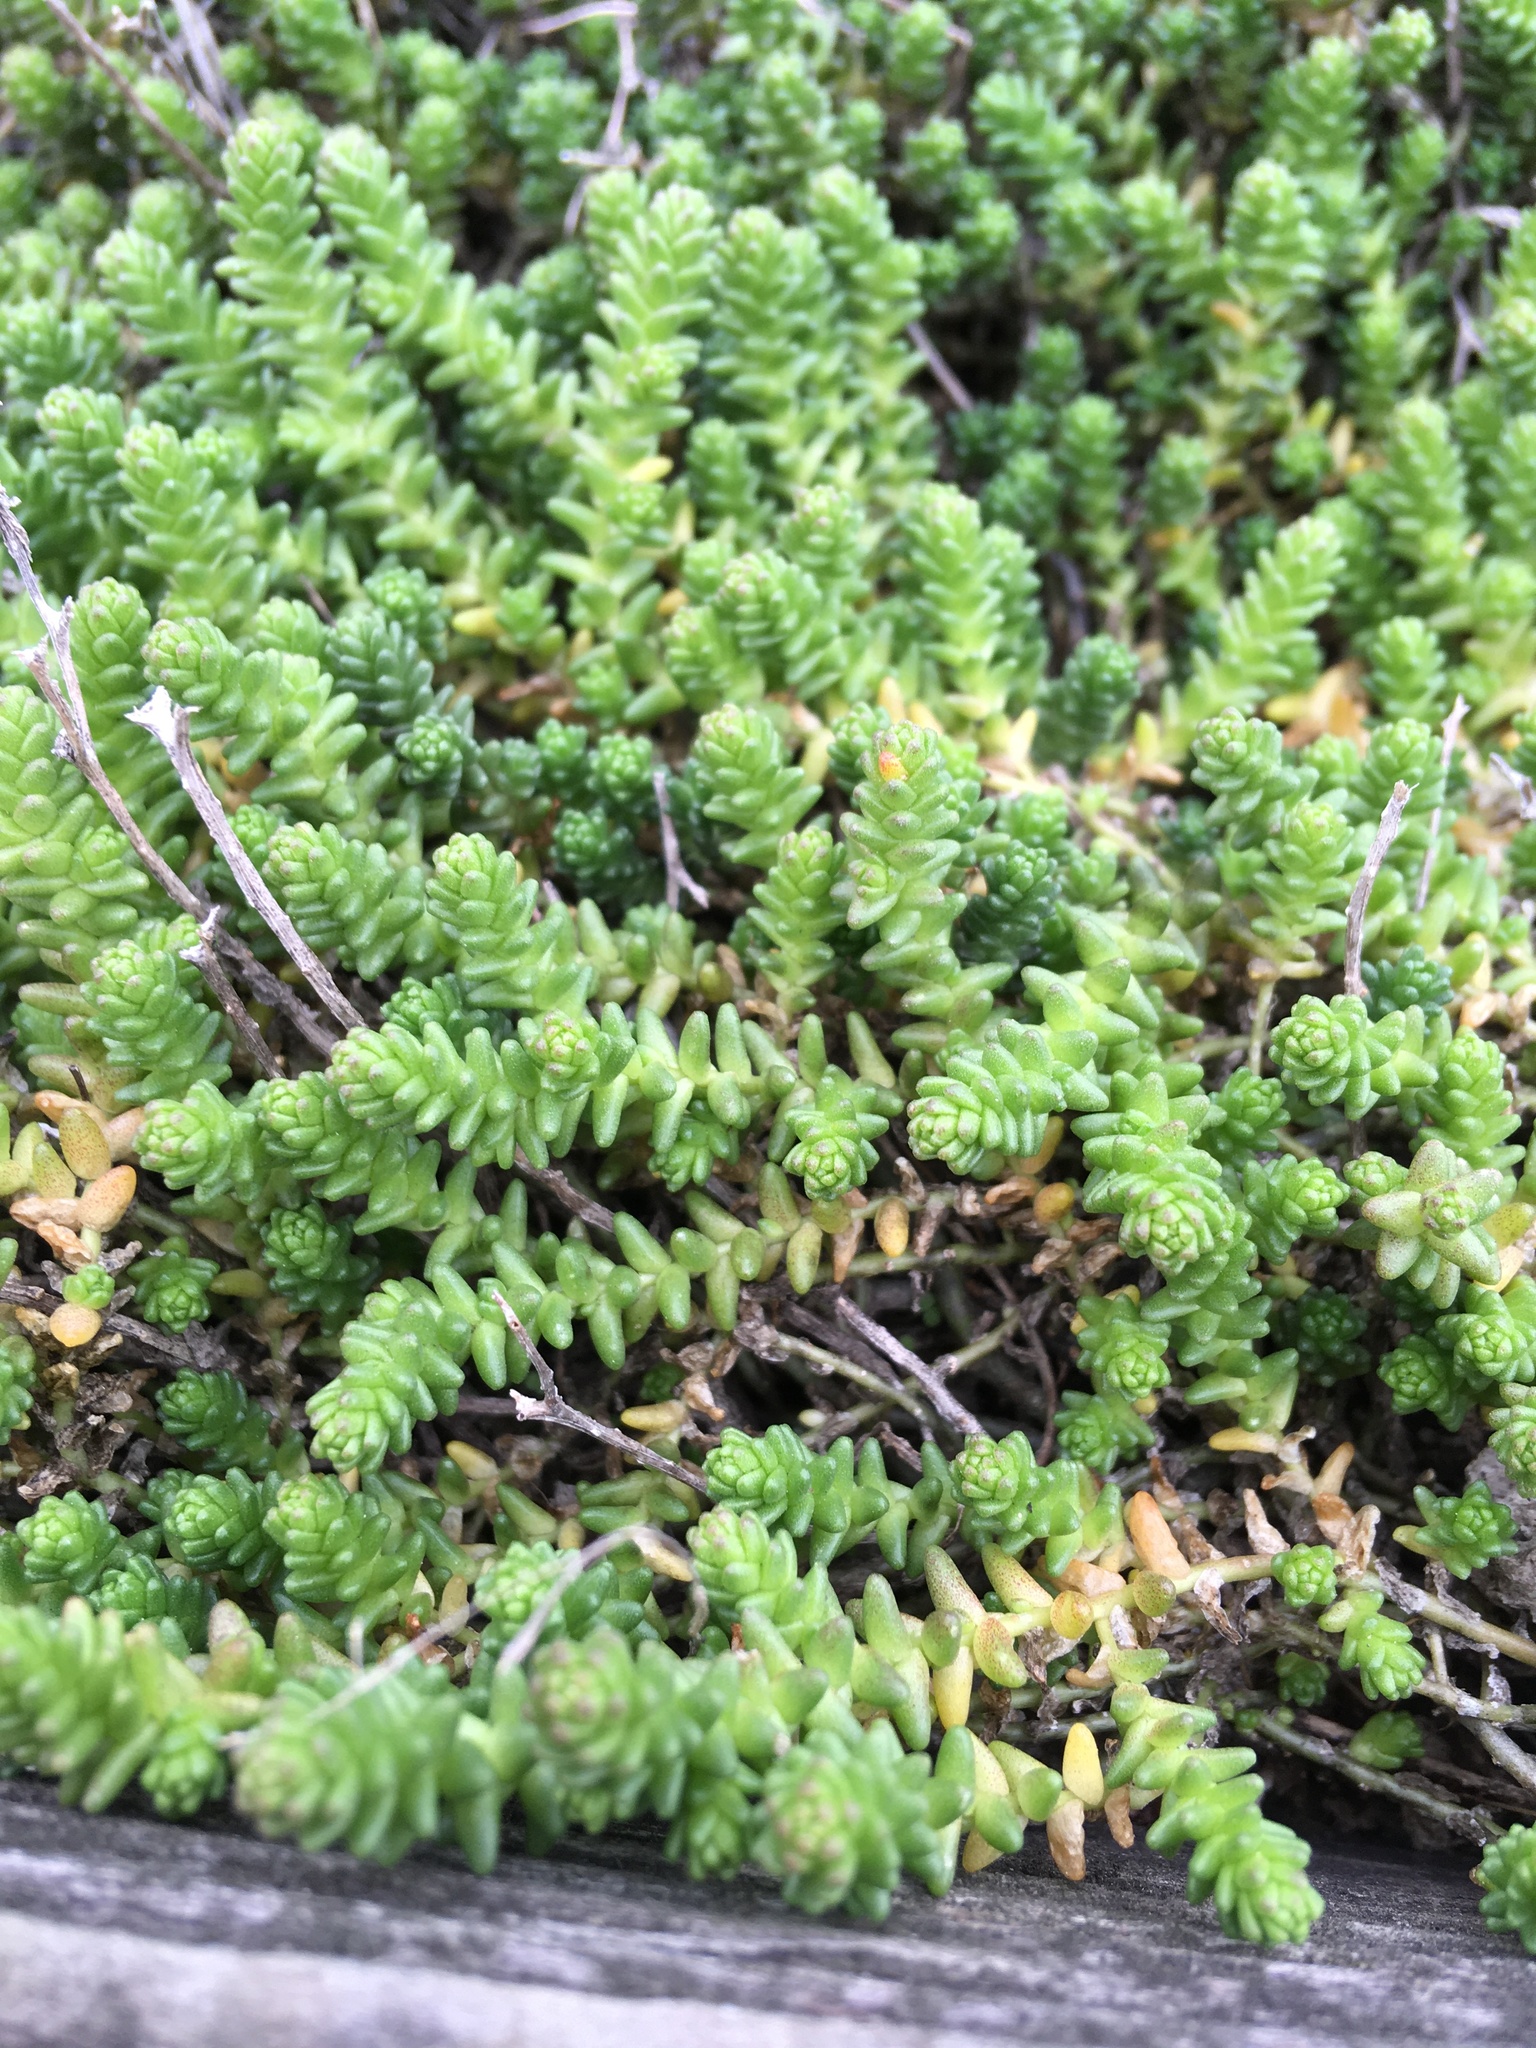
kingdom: Plantae
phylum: Tracheophyta
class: Magnoliopsida
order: Saxifragales
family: Crassulaceae
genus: Sedum
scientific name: Sedum acre
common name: Biting stonecrop
